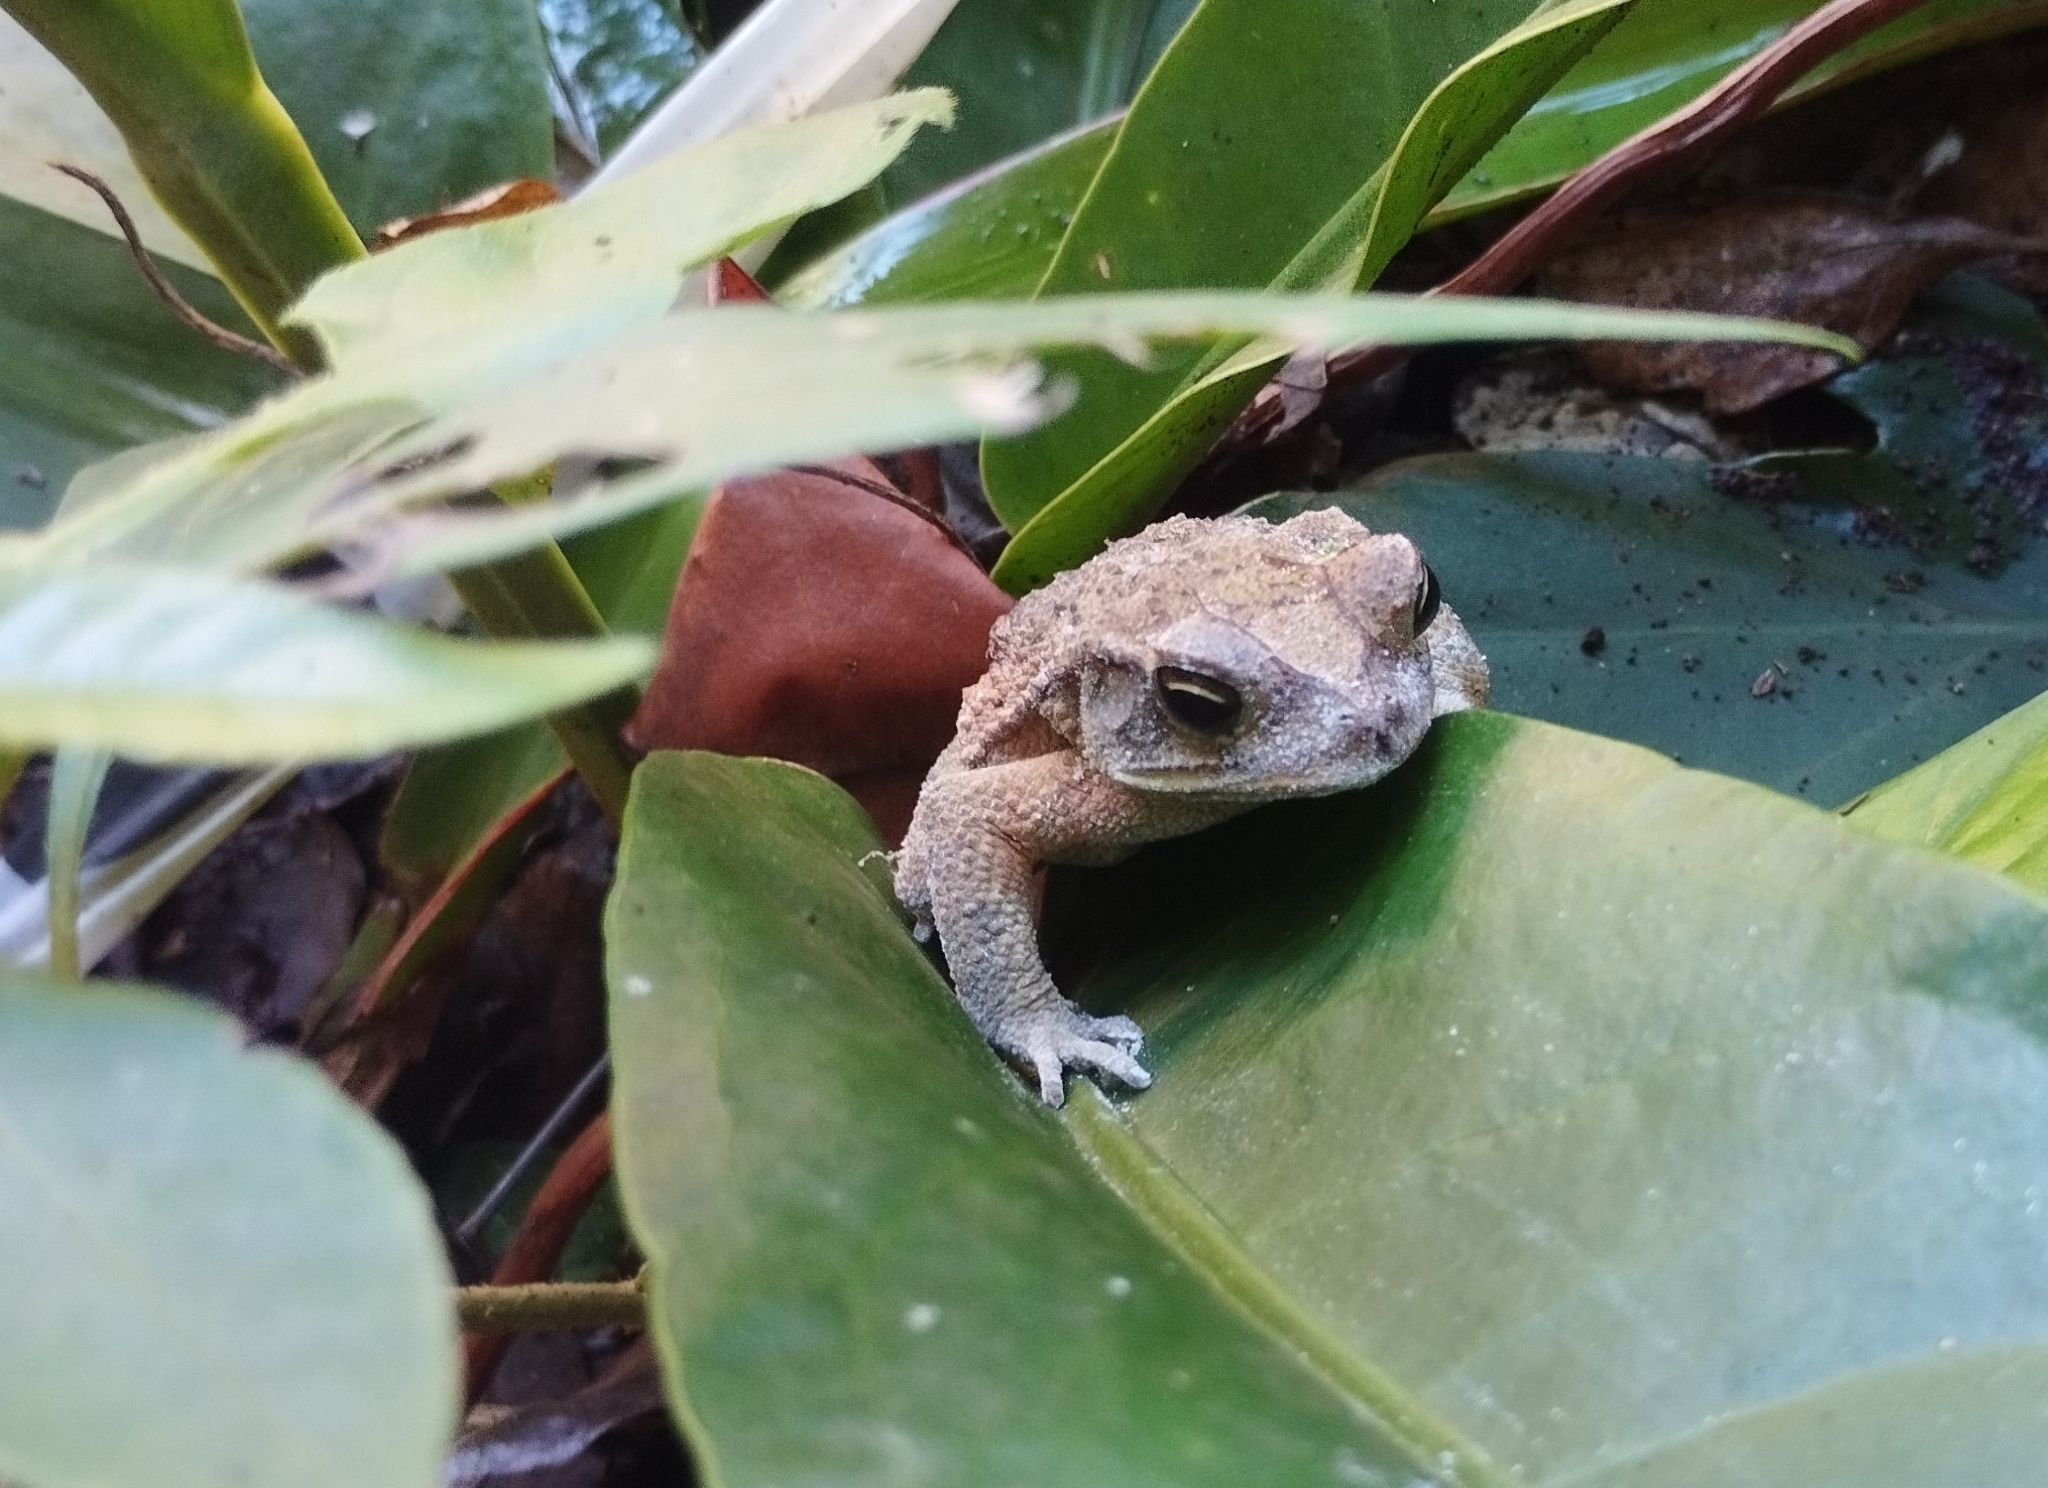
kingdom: Animalia
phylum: Chordata
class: Amphibia
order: Anura
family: Bufonidae
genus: Incilius
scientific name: Incilius valliceps
